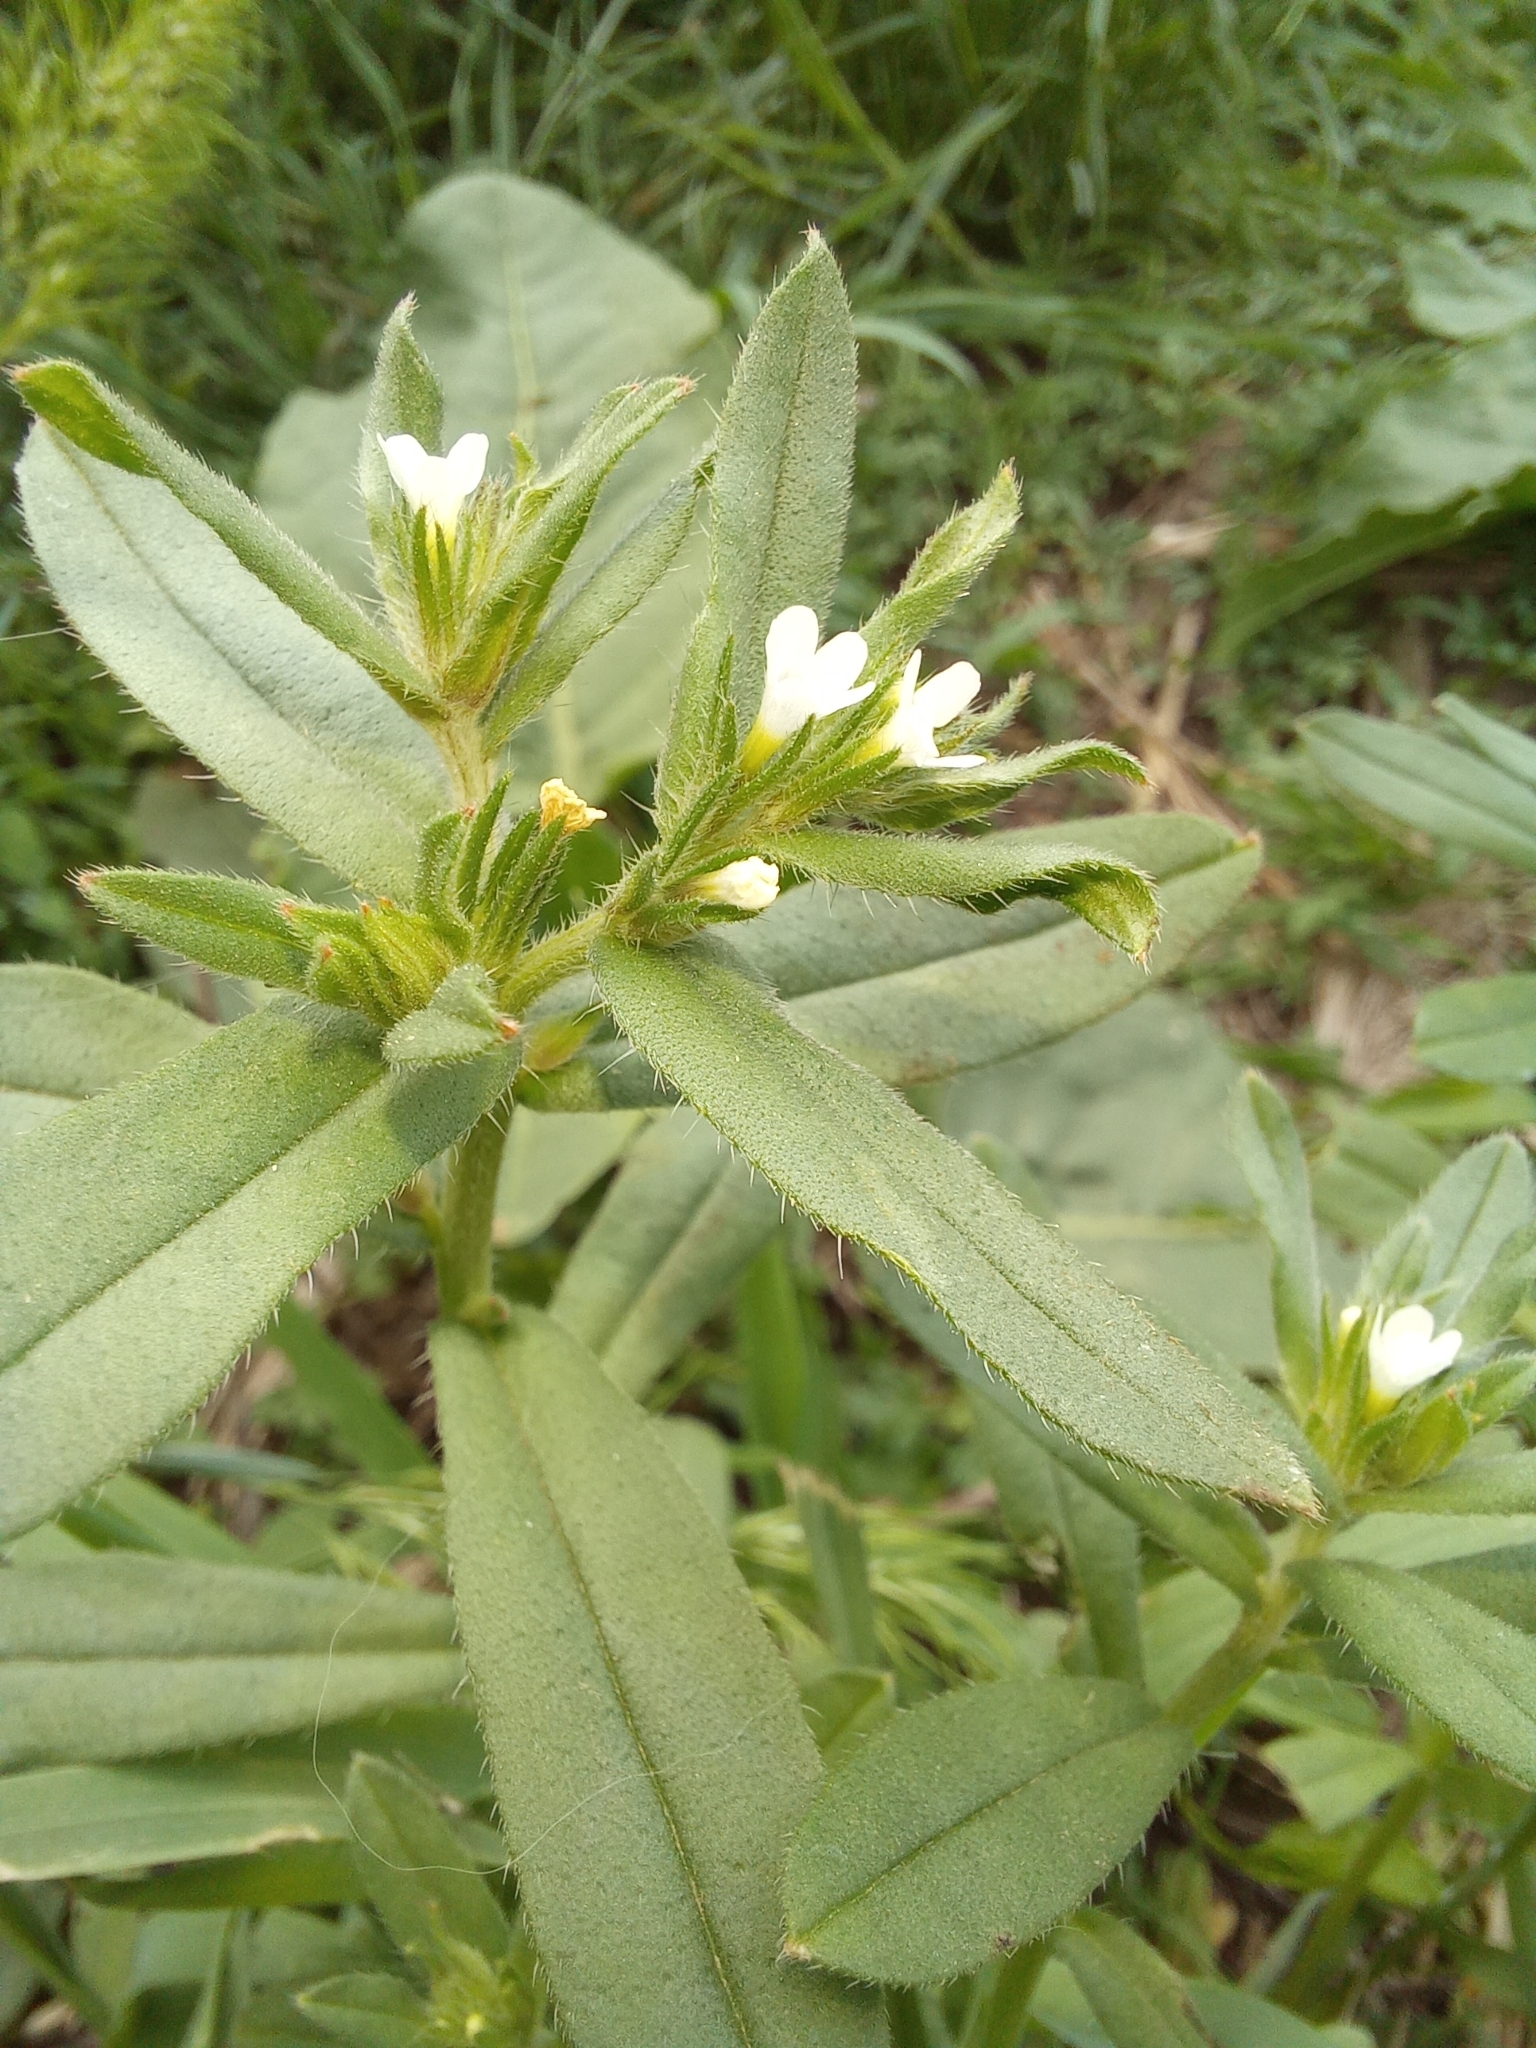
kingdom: Plantae
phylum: Tracheophyta
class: Magnoliopsida
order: Boraginales
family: Boraginaceae
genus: Buglossoides
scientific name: Buglossoides arvensis
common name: Corn gromwell
